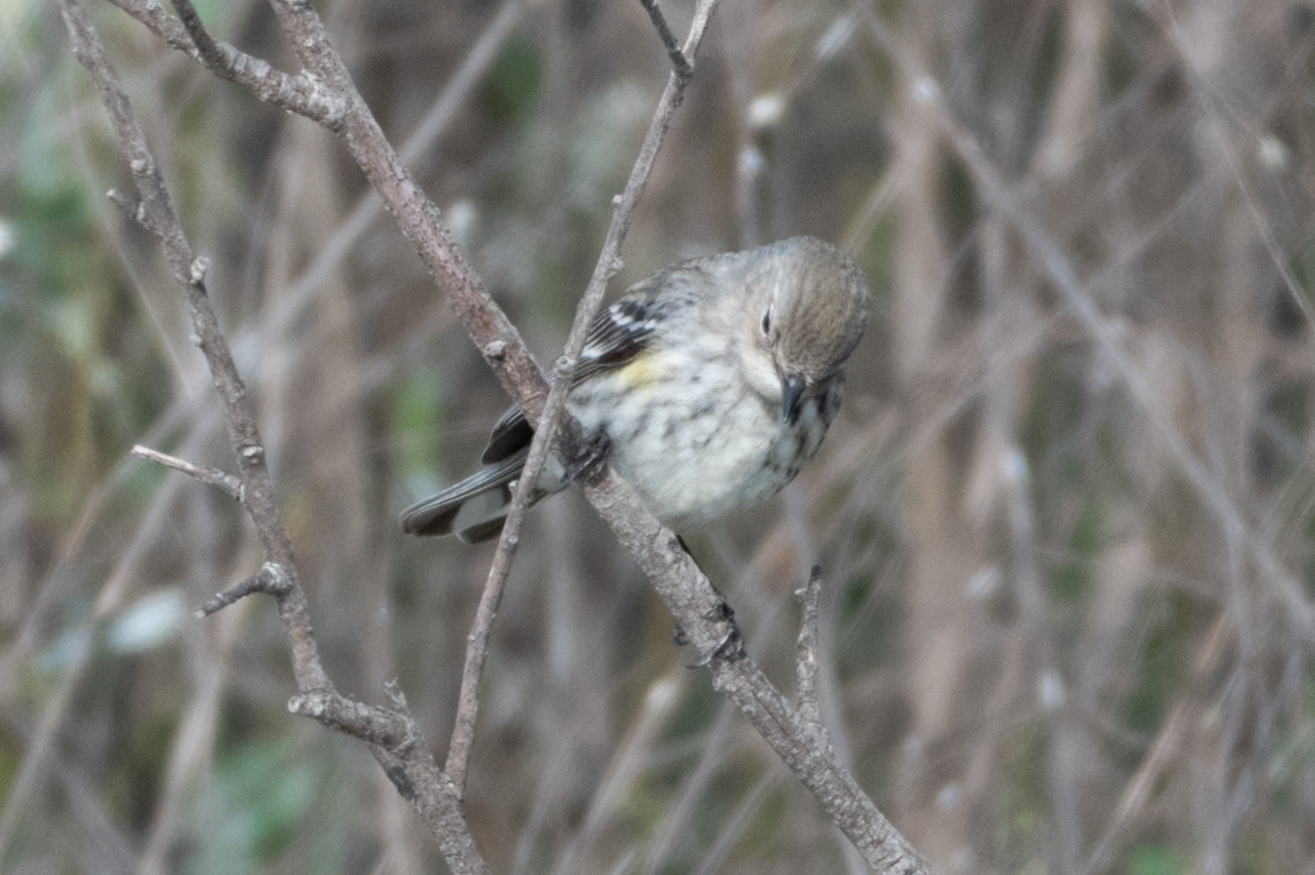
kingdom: Animalia
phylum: Chordata
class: Aves
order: Passeriformes
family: Parulidae
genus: Setophaga
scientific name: Setophaga coronata
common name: Myrtle warbler
